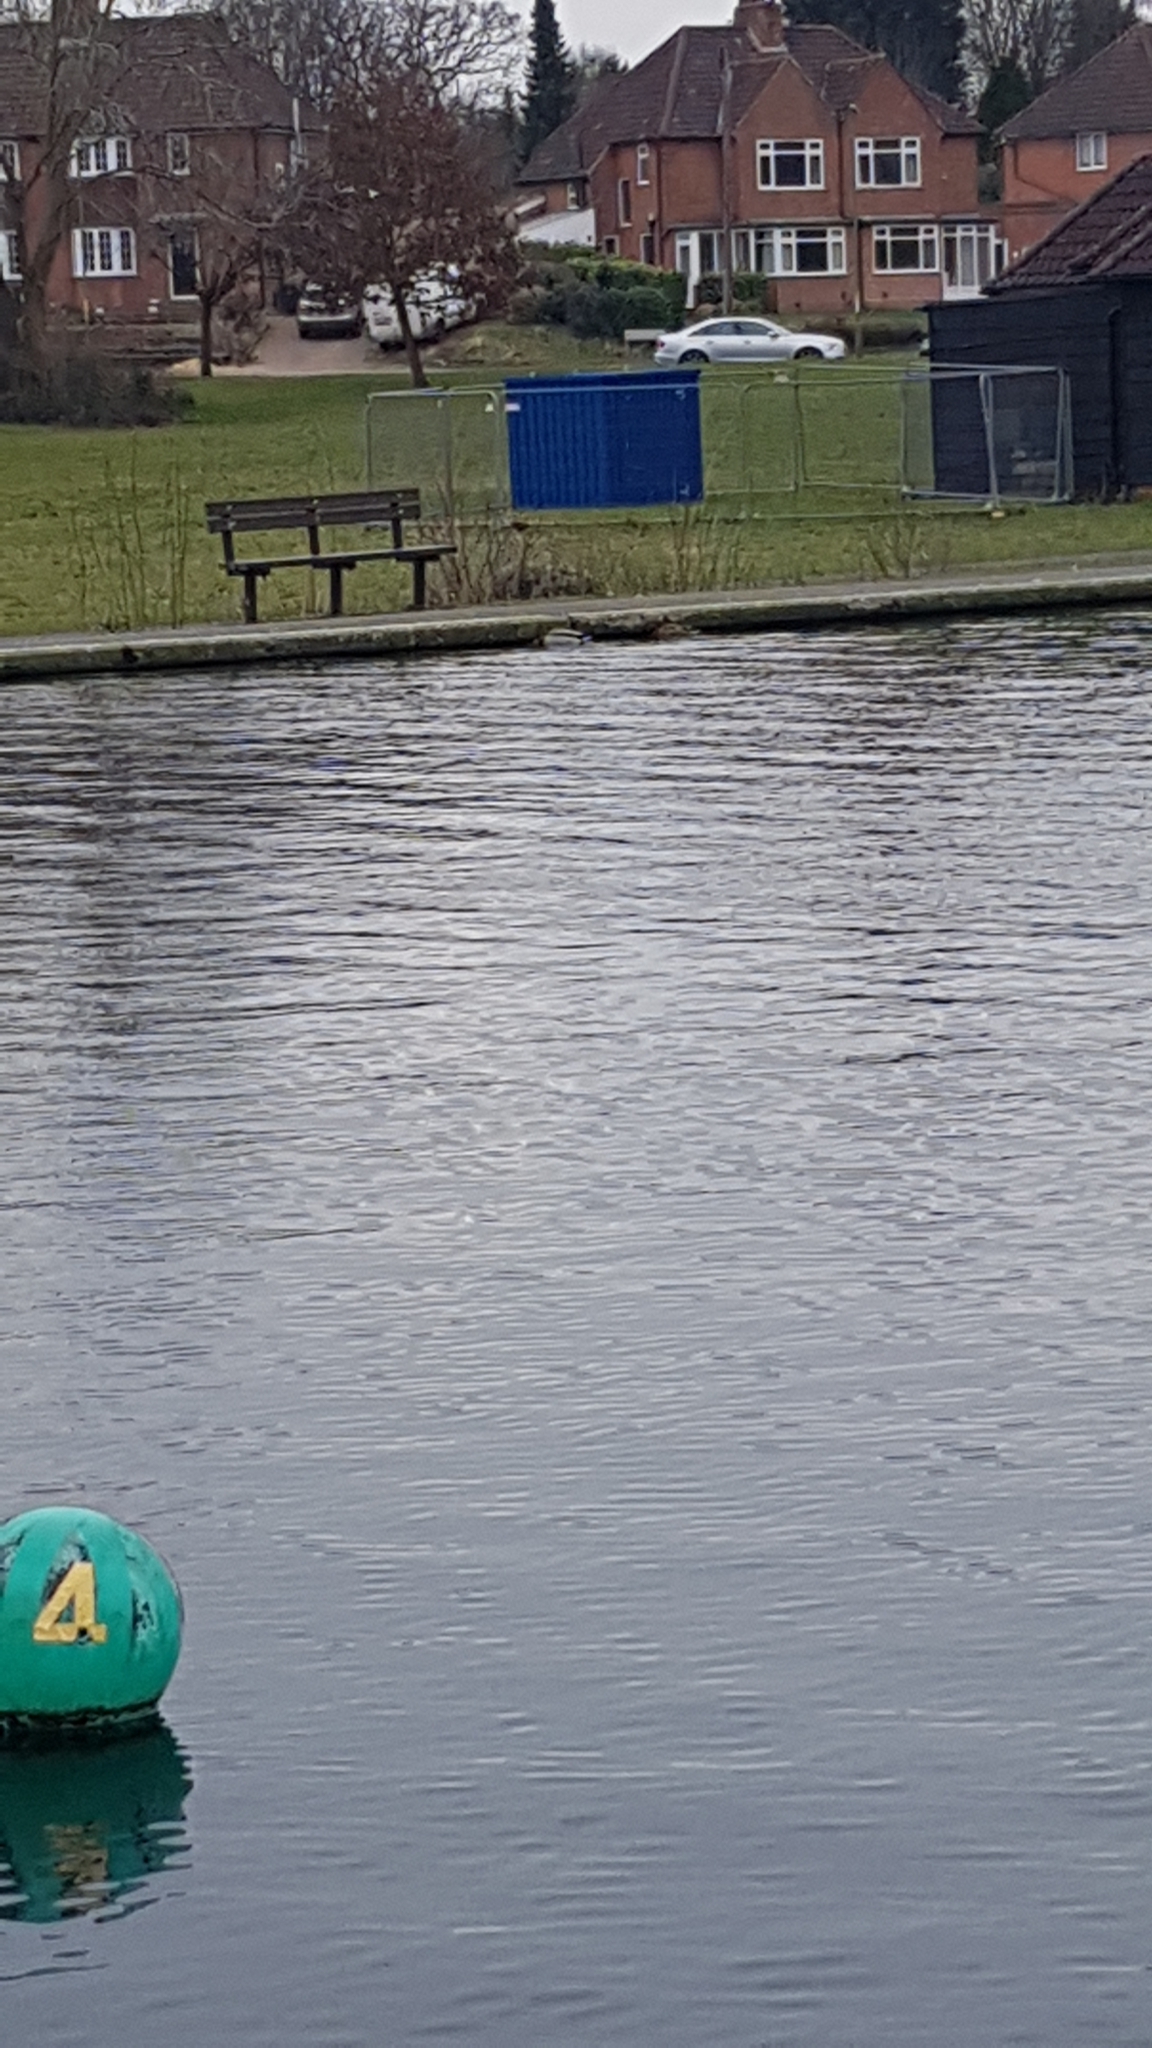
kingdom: Animalia
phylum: Chordata
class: Aves
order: Anseriformes
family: Anatidae
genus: Anas
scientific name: Anas platyrhynchos
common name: Mallard
